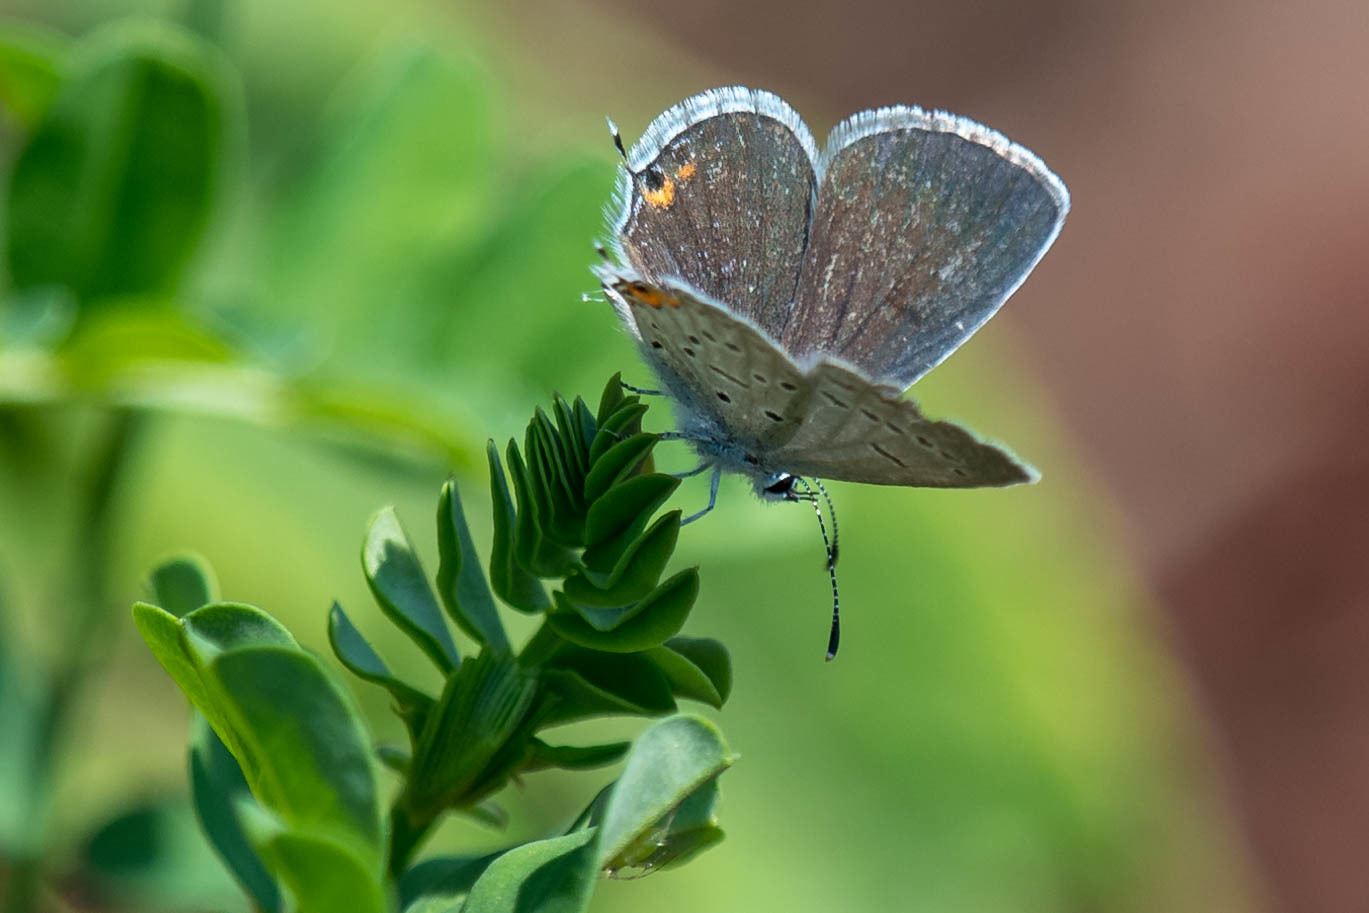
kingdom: Animalia
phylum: Arthropoda
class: Insecta
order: Lepidoptera
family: Lycaenidae
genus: Elkalyce
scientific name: Elkalyce comyntas
